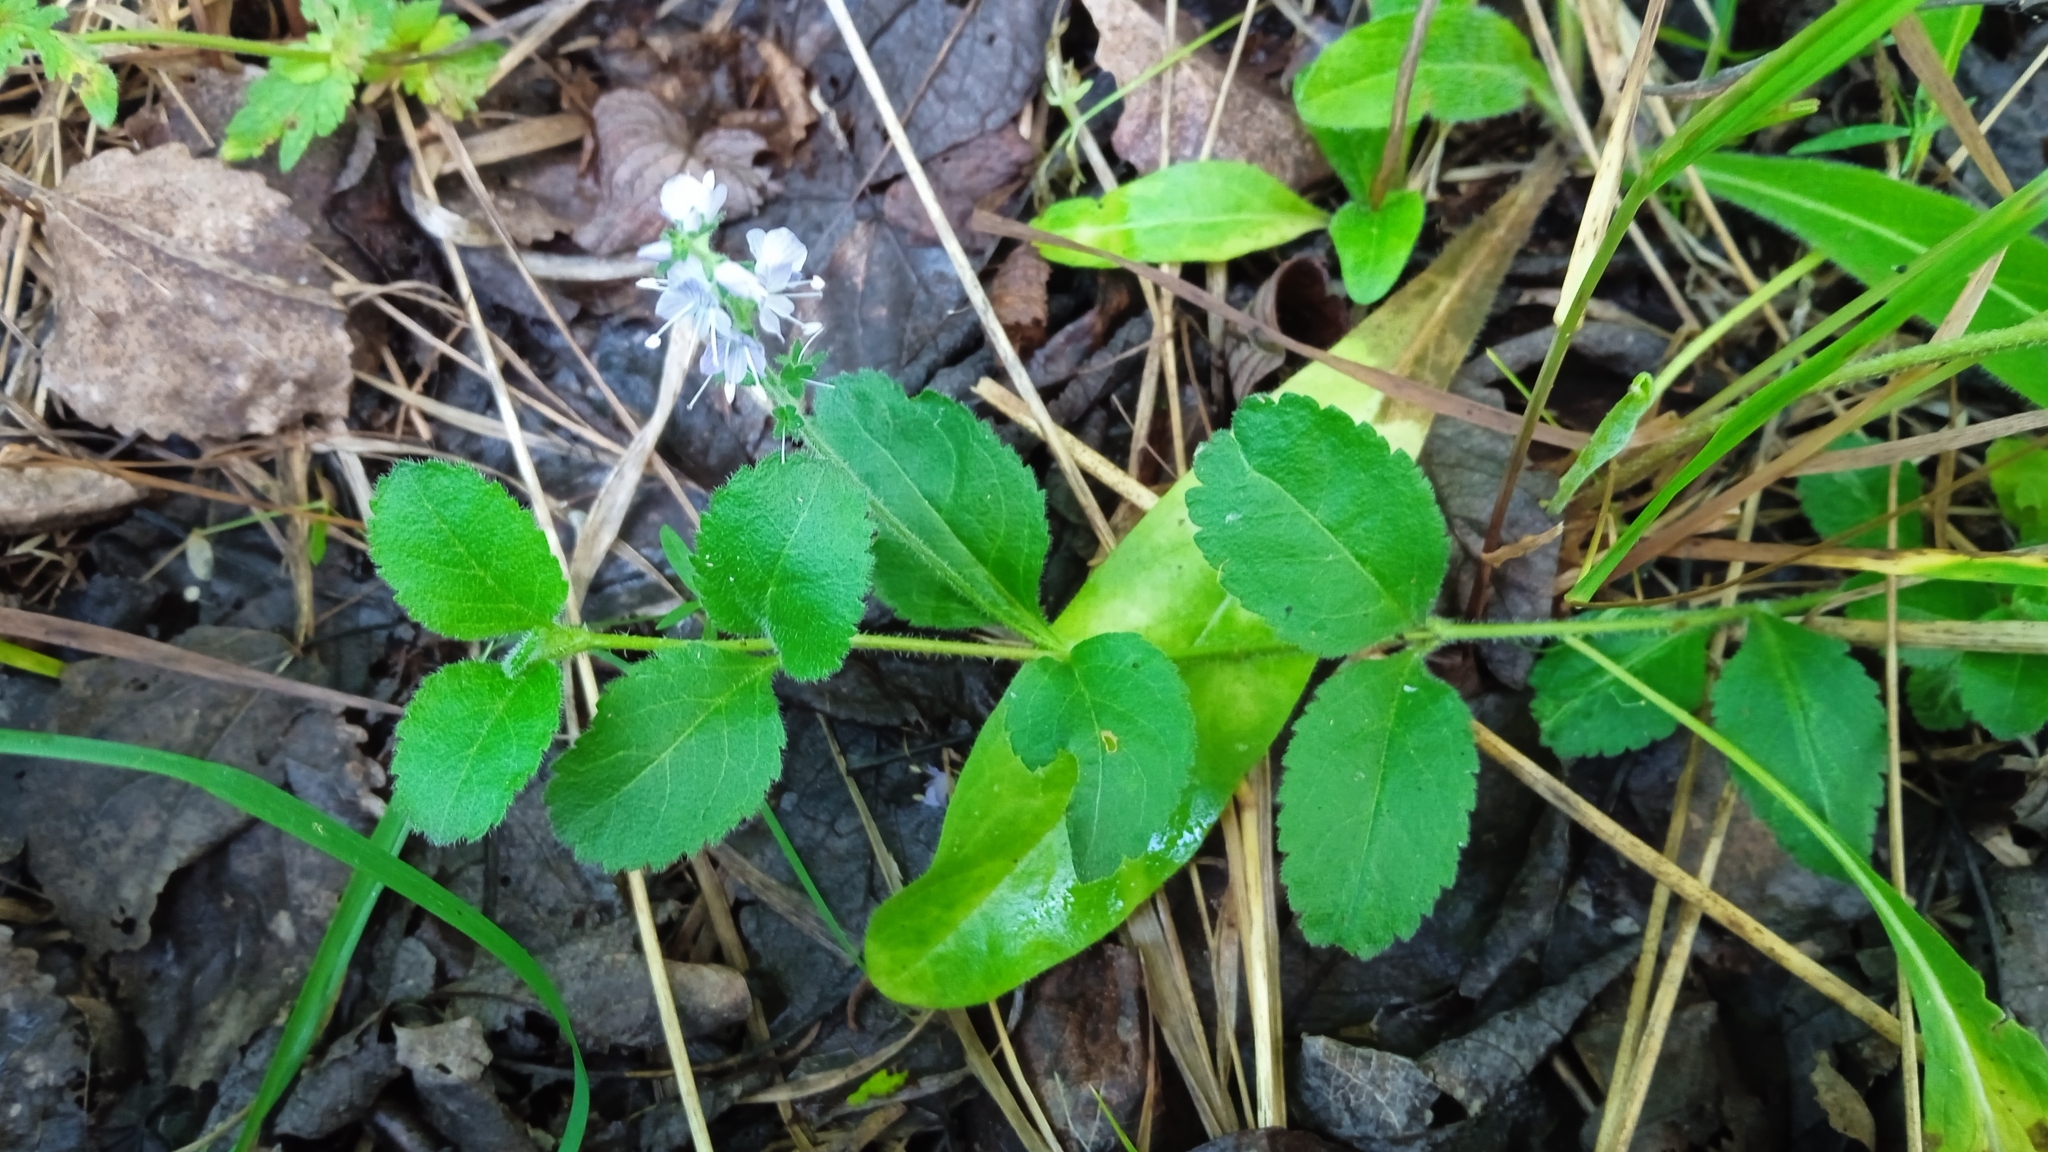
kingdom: Plantae
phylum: Tracheophyta
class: Magnoliopsida
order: Lamiales
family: Plantaginaceae
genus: Veronica
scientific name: Veronica officinalis
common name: Common speedwell
